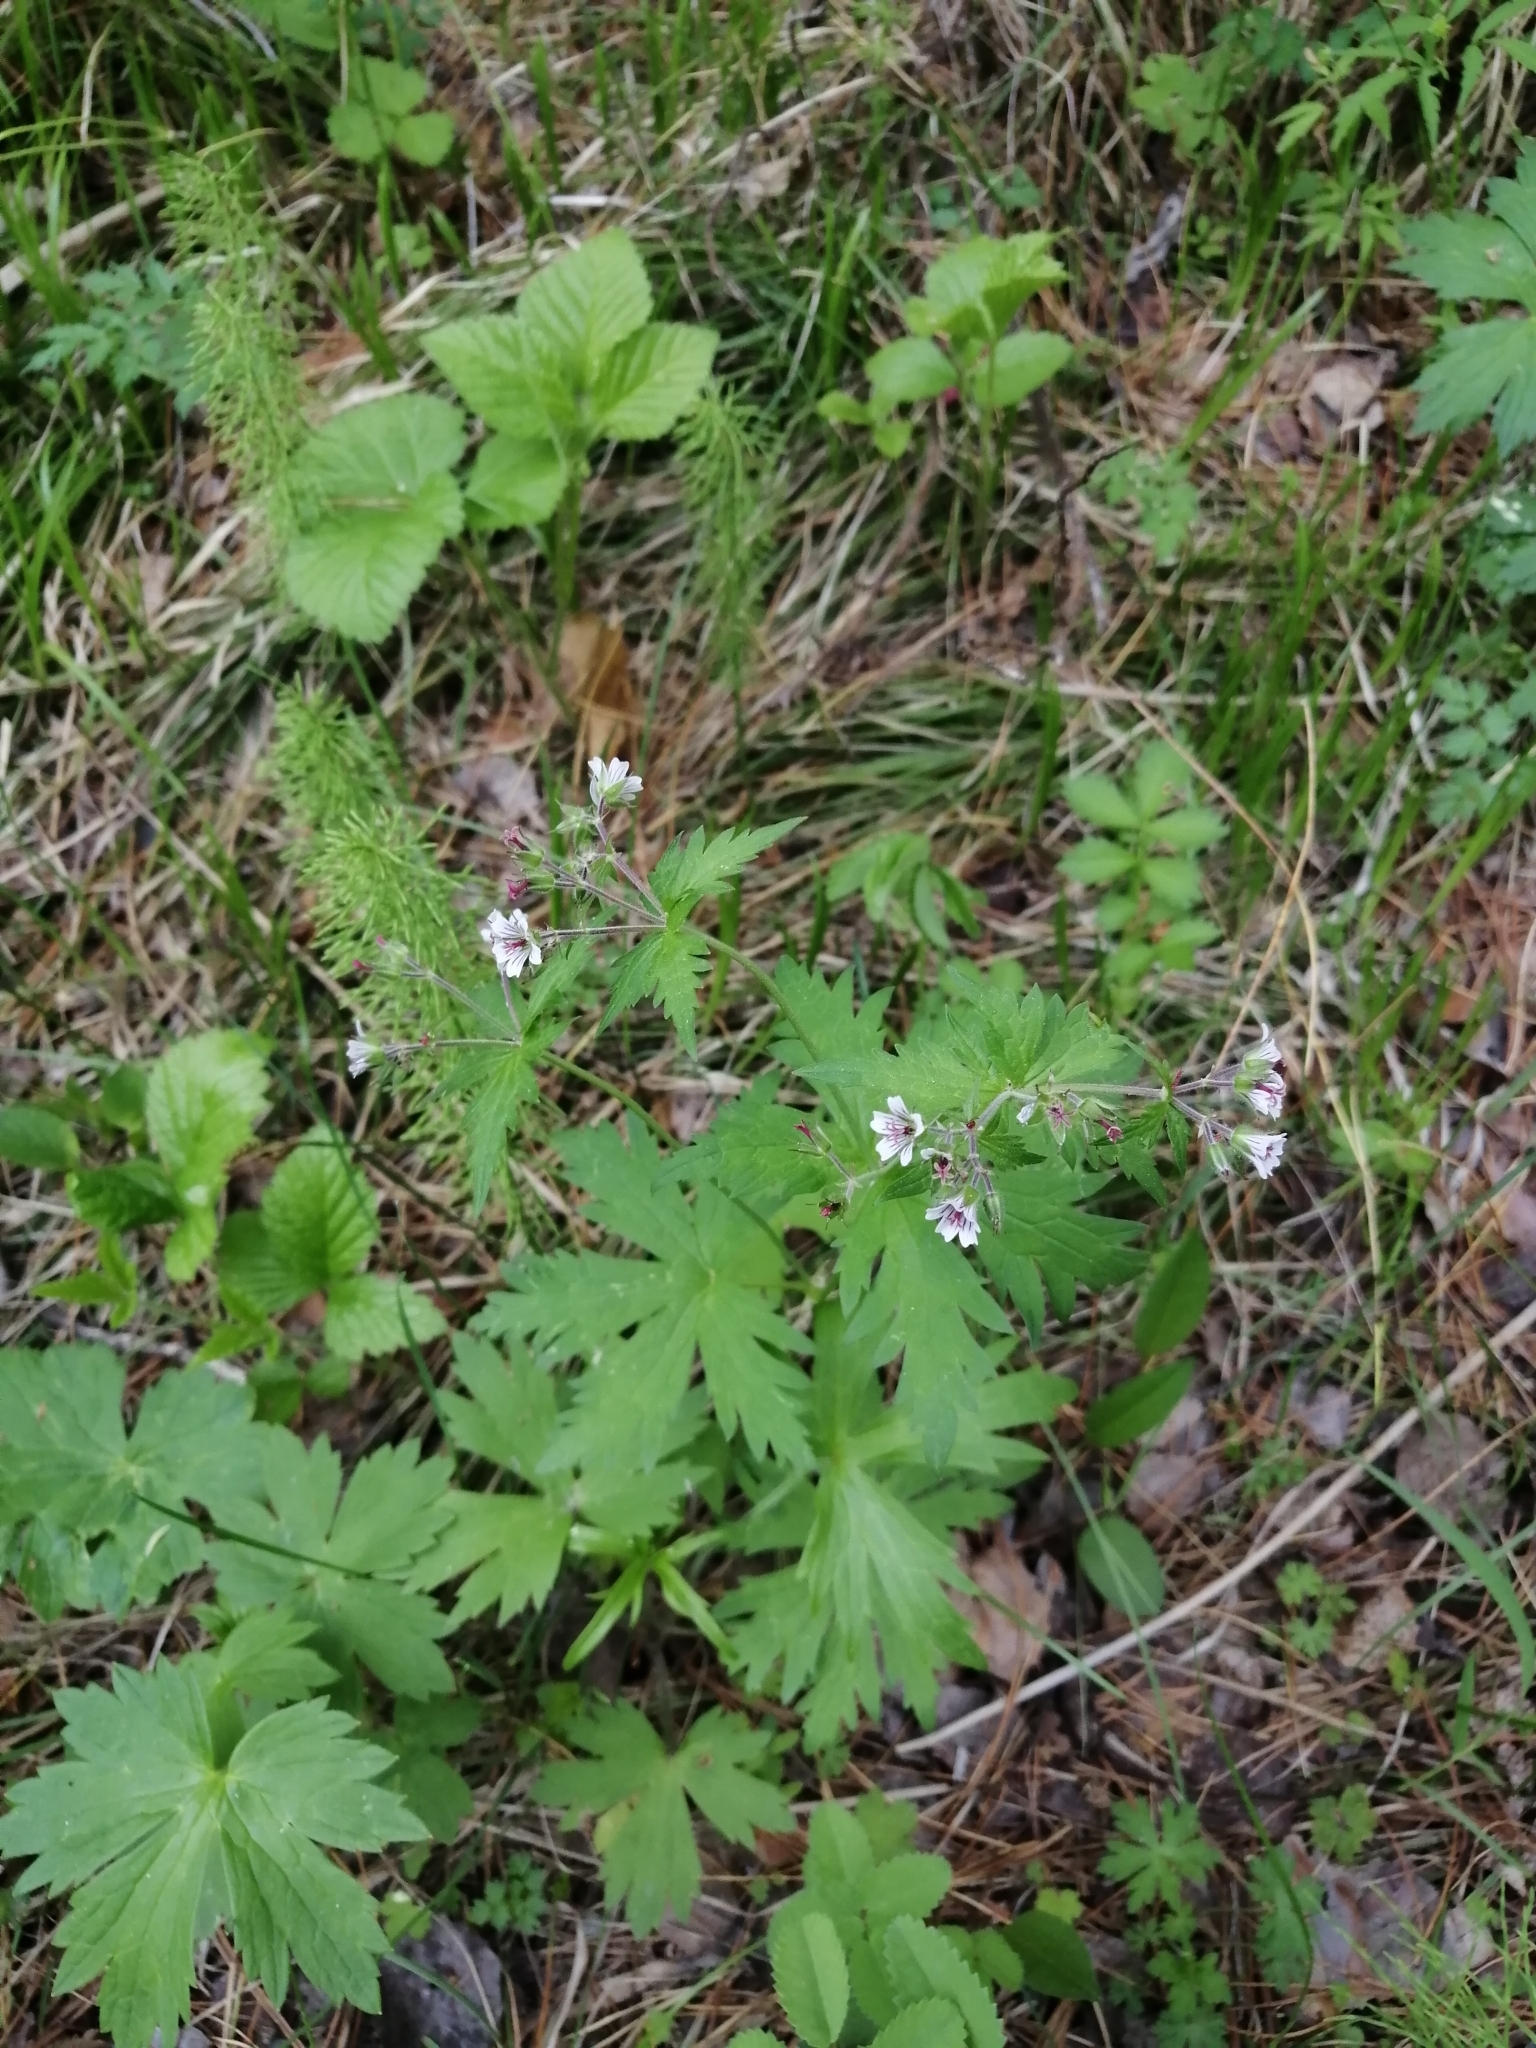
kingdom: Plantae
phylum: Tracheophyta
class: Magnoliopsida
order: Geraniales
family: Geraniaceae
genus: Geranium
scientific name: Geranium sylvaticum
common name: Wood crane's-bill
